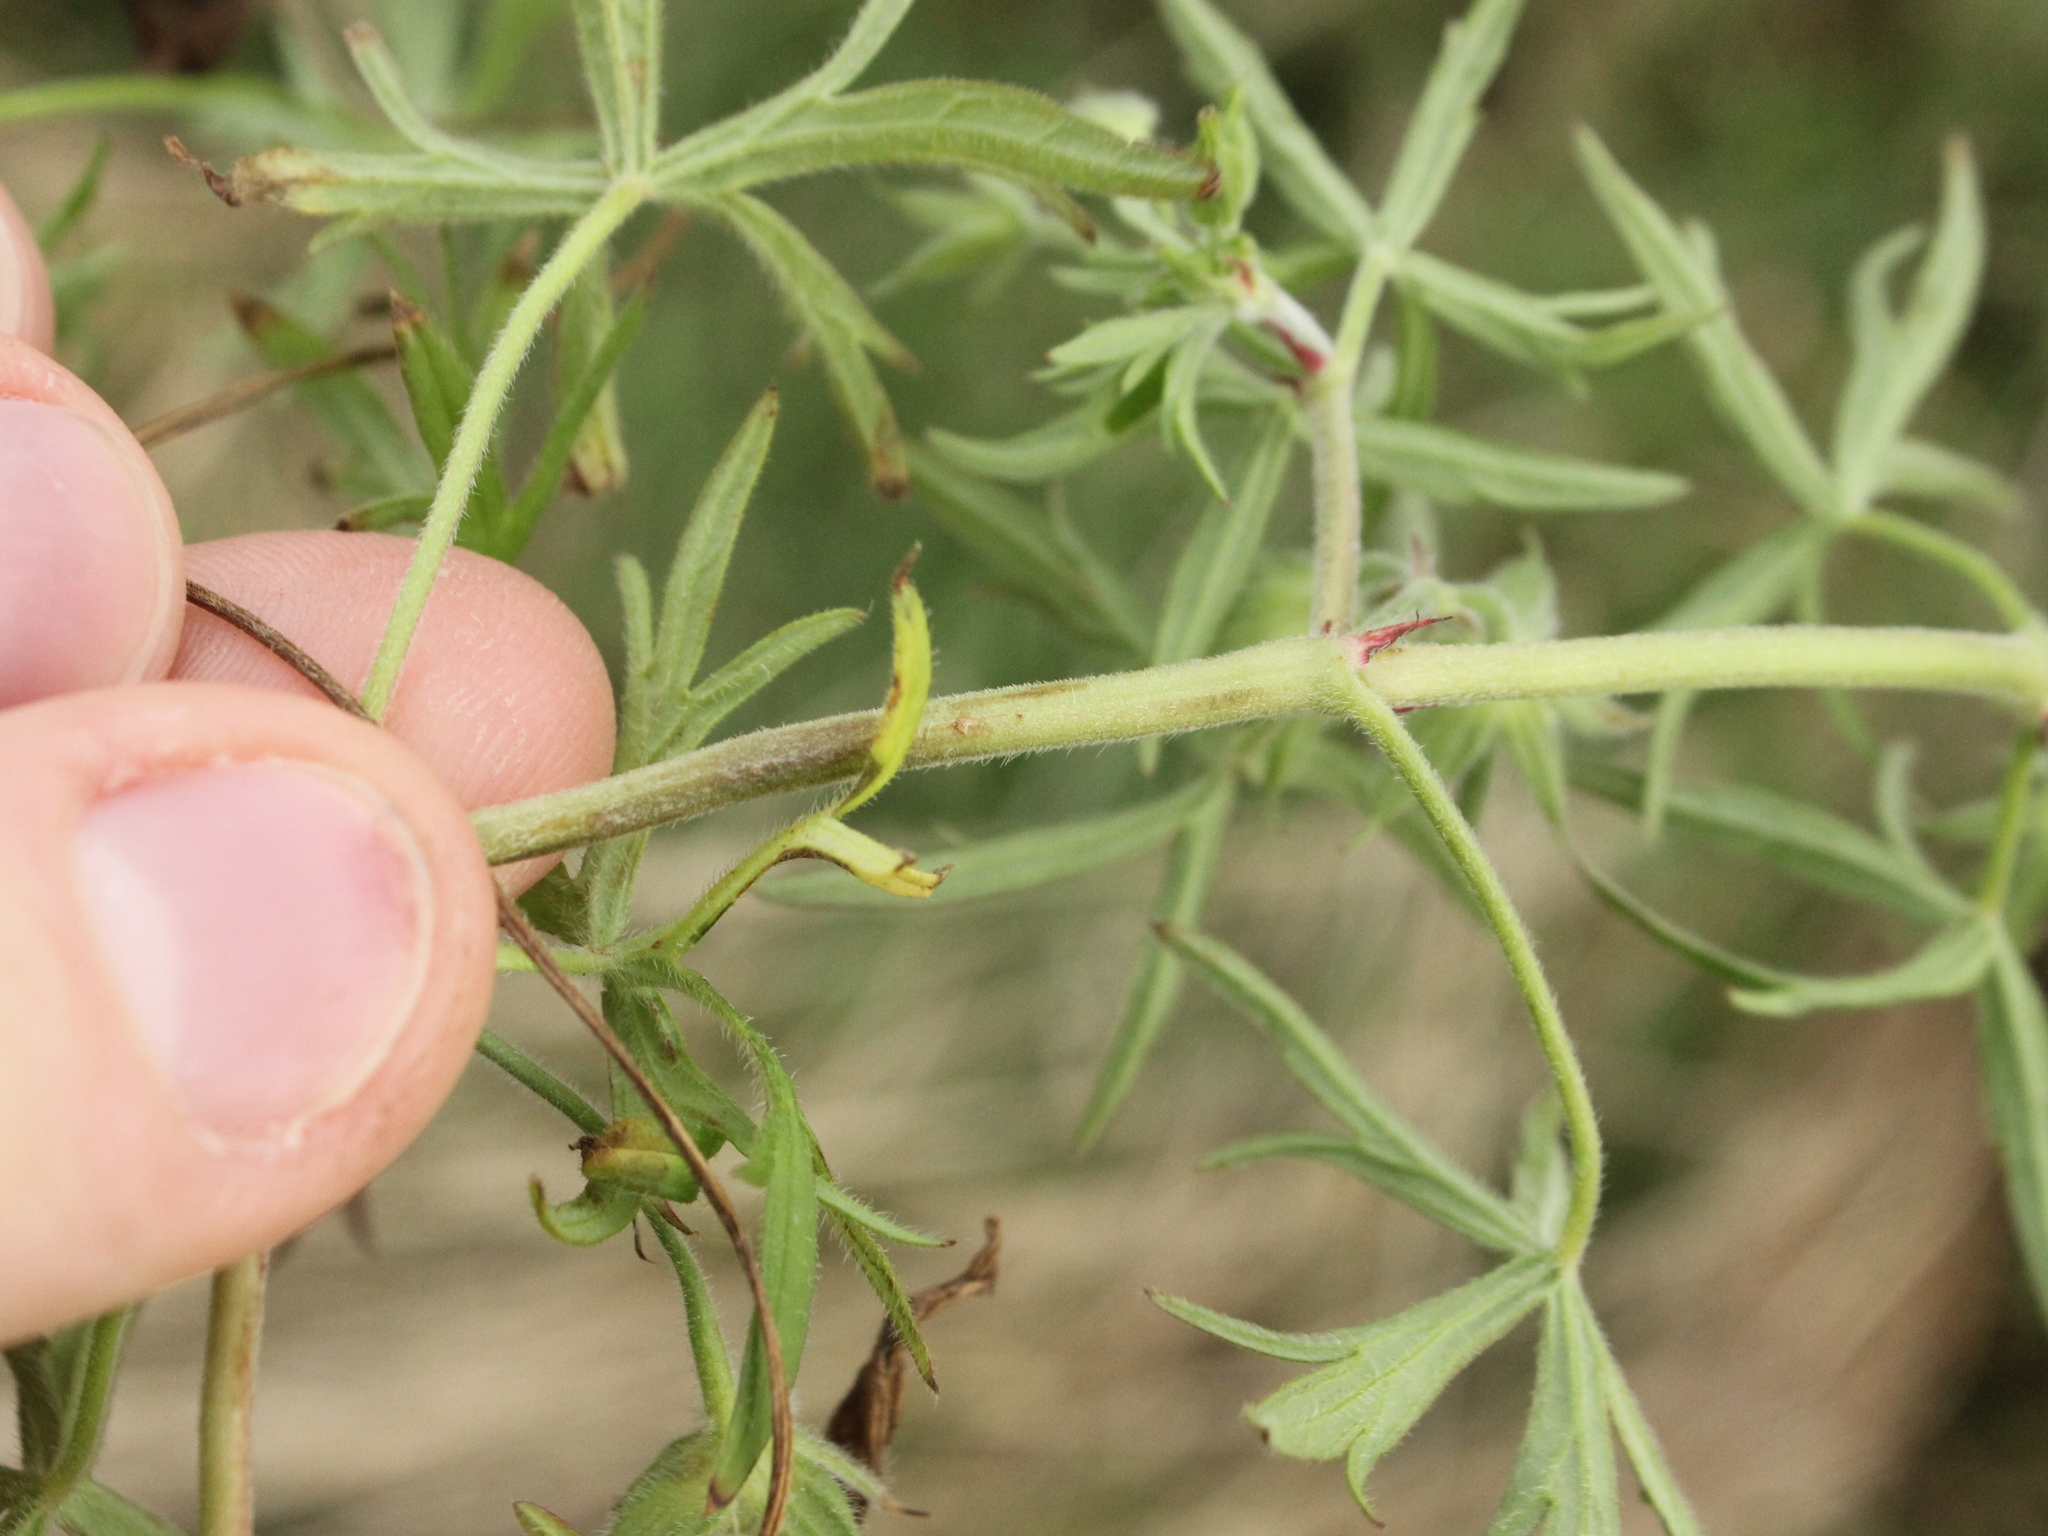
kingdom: Plantae
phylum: Tracheophyta
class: Magnoliopsida
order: Geraniales
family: Geraniaceae
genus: Geranium
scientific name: Geranium dissectum
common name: Cut-leaved crane's-bill
